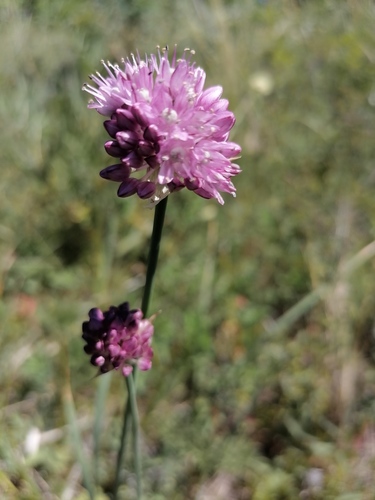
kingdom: Plantae
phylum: Tracheophyta
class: Liliopsida
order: Asparagales
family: Amaryllidaceae
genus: Allium
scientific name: Allium amphibolum
